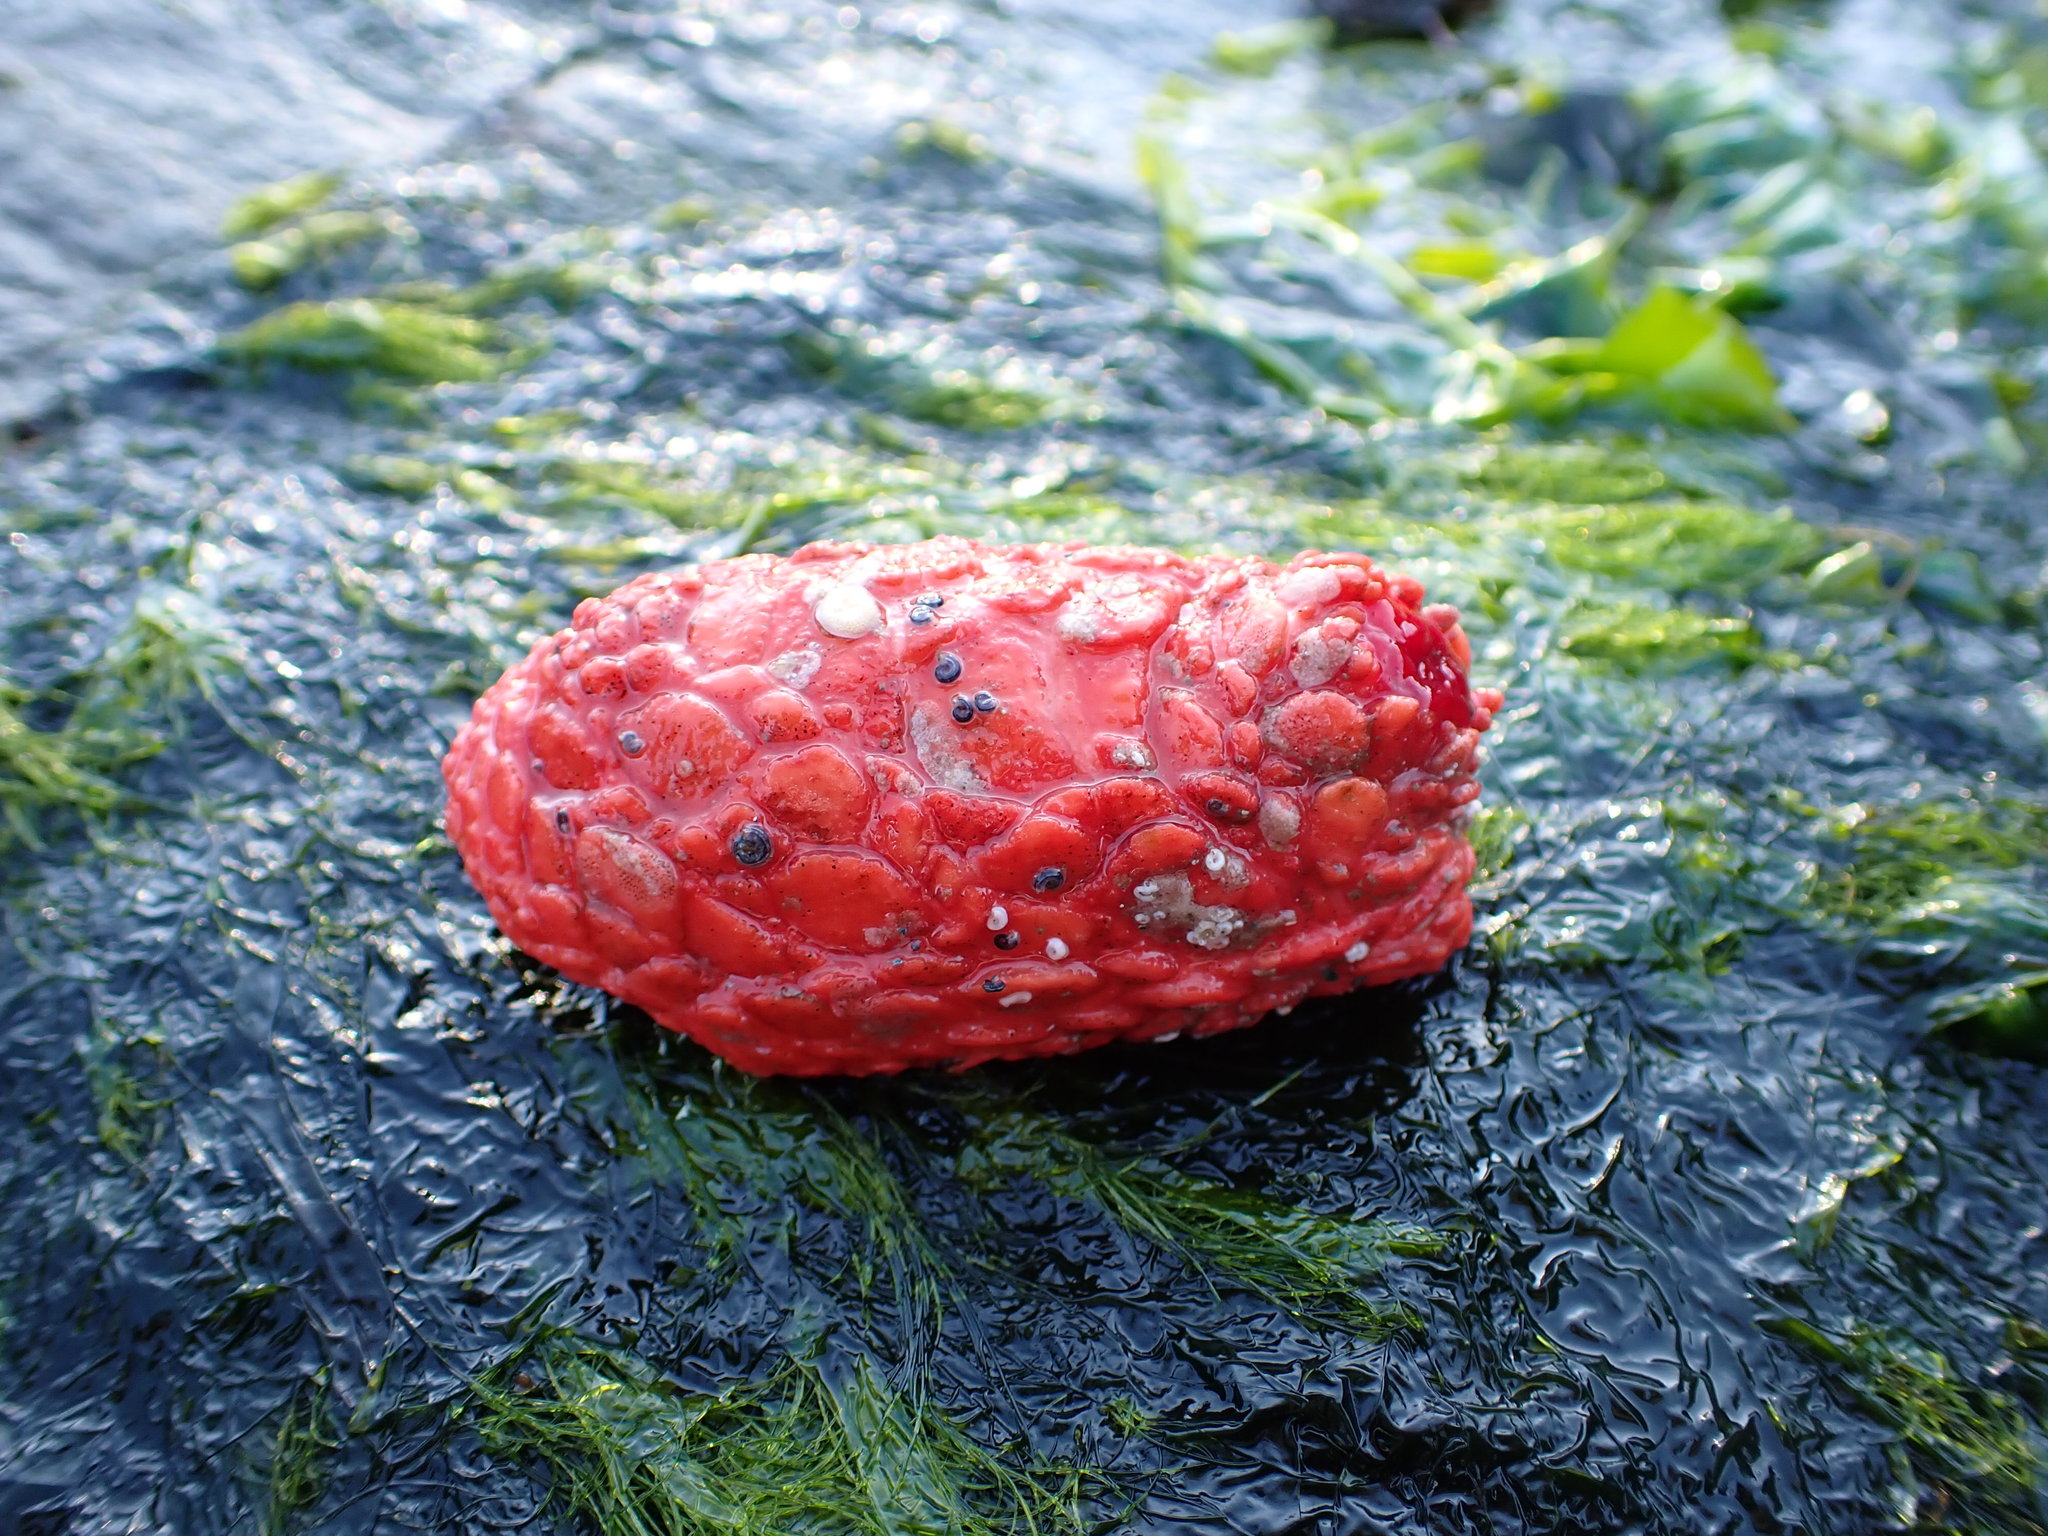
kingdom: Animalia
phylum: Echinodermata
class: Holothuroidea
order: Dendrochirotida
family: Psolidae
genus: Psolus
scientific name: Psolus chitonoides
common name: Creeping pedal sea cucumber
